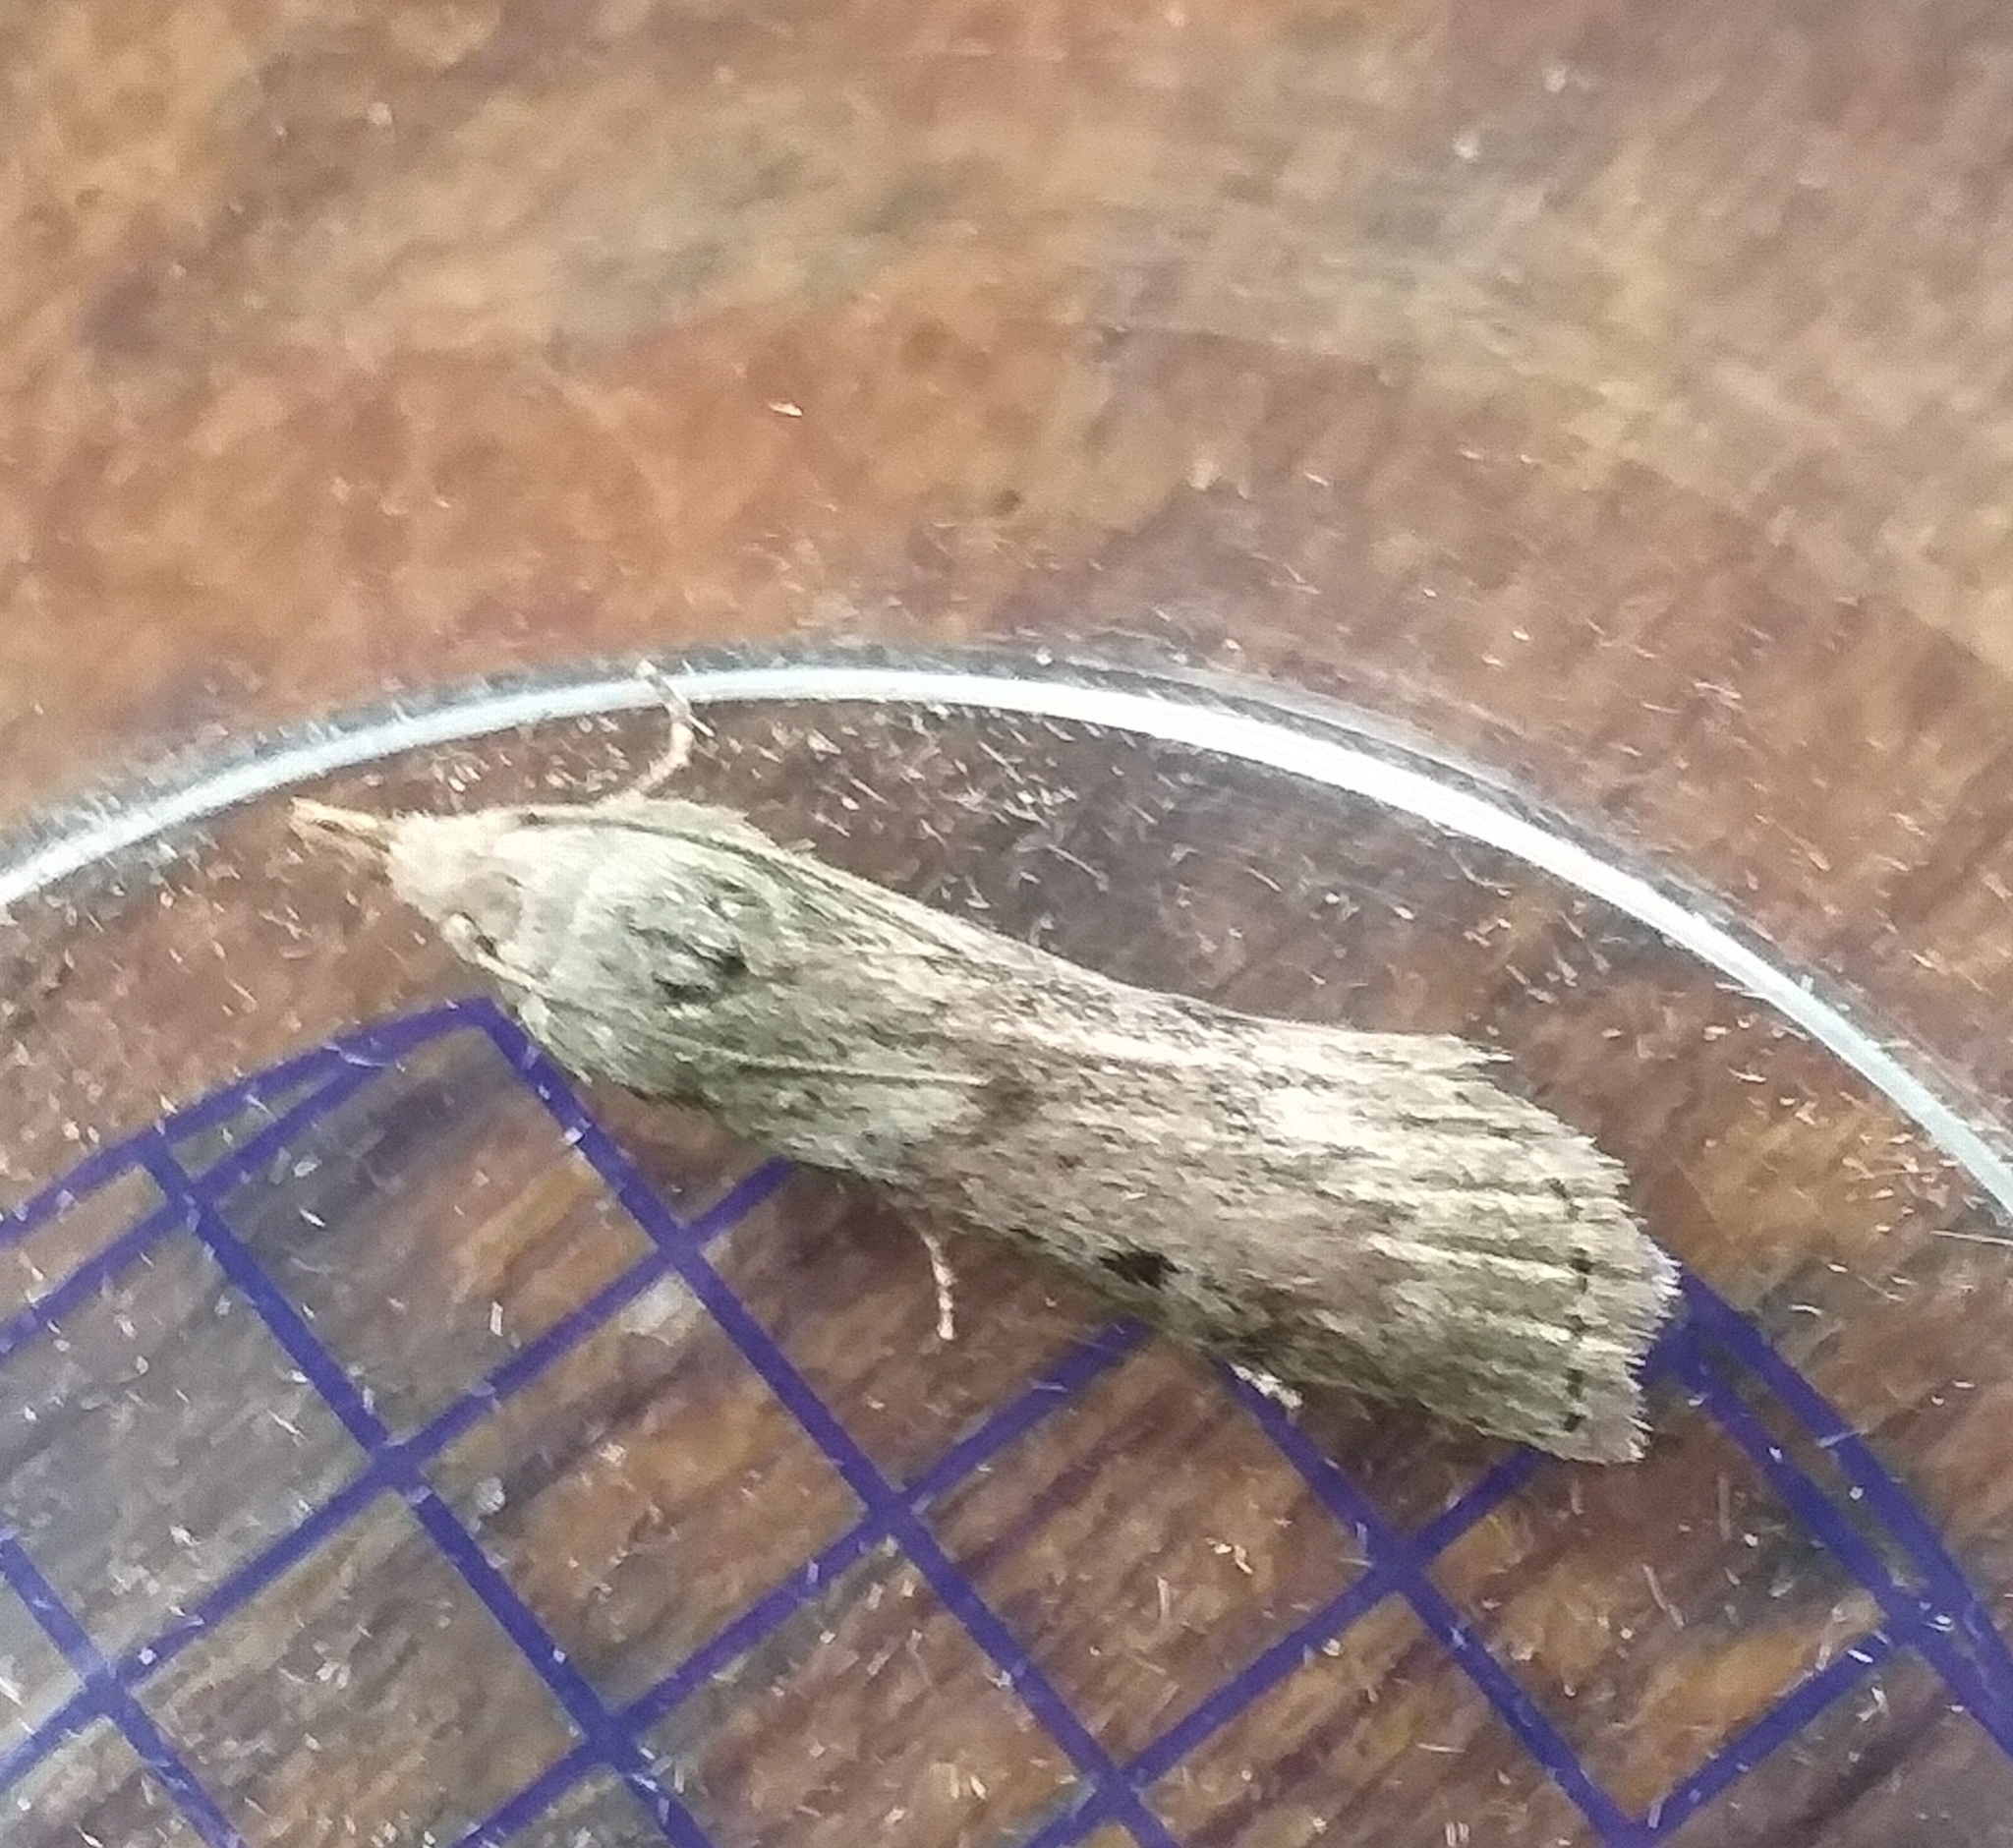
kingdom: Animalia
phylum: Arthropoda
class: Insecta
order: Lepidoptera
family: Pyralidae
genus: Aphomia
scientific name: Aphomia sociella
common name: Bee moth
